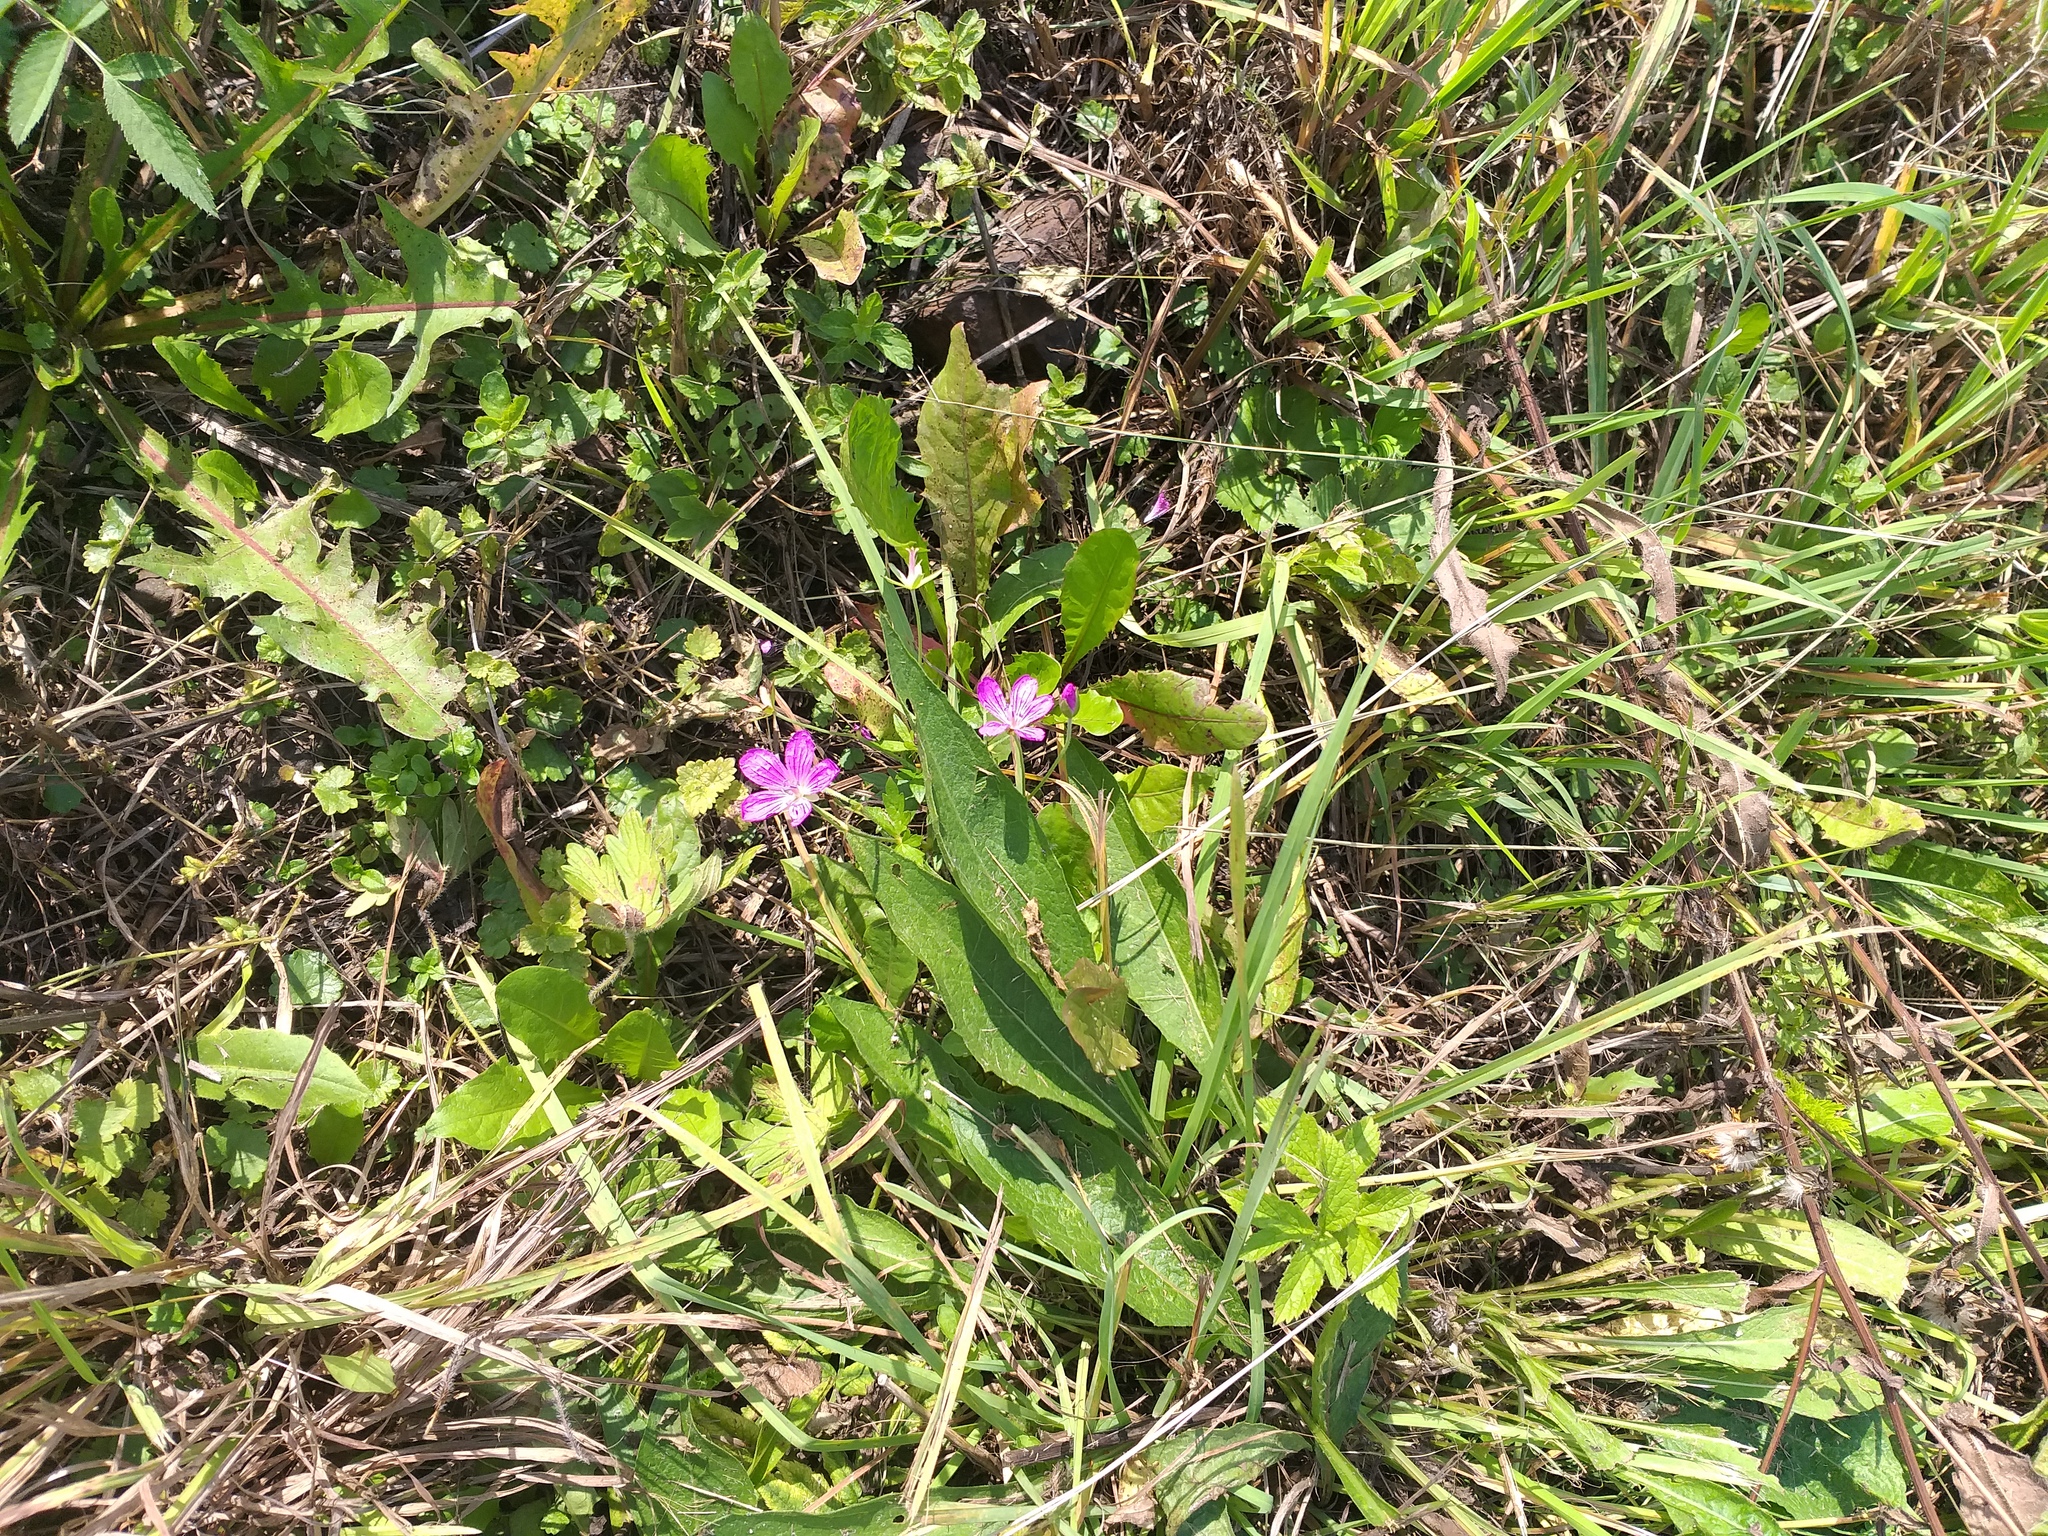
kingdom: Plantae
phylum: Tracheophyta
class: Magnoliopsida
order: Geraniales
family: Geraniaceae
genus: Geranium
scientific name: Geranium palustre
